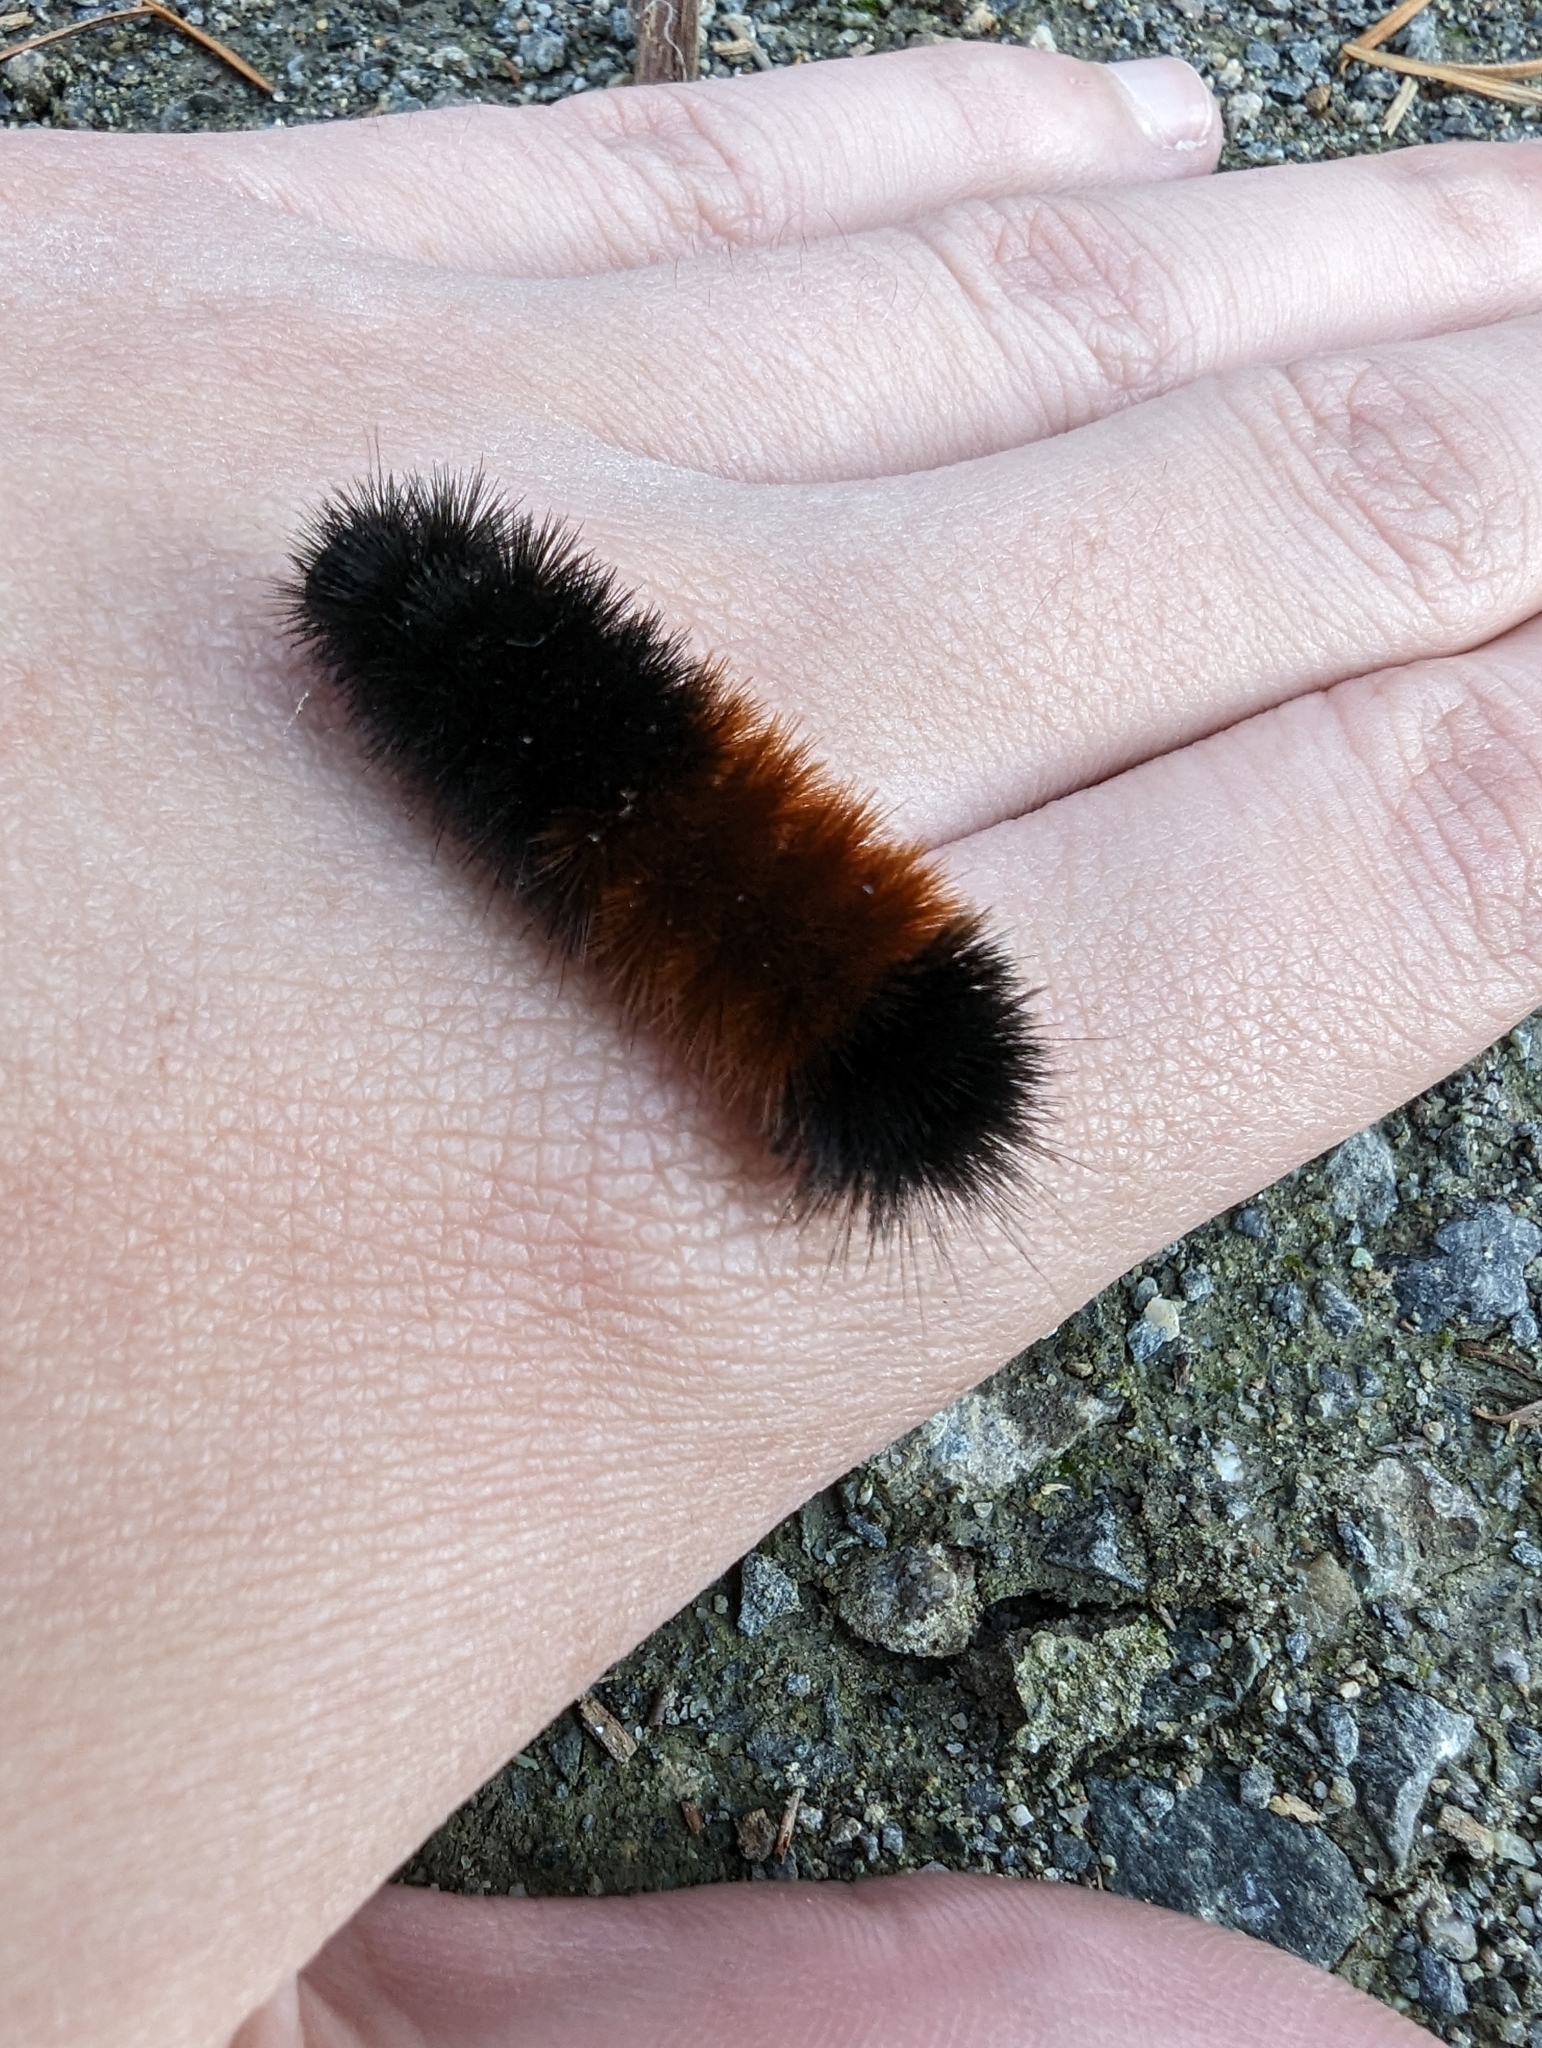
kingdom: Animalia
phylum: Arthropoda
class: Insecta
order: Lepidoptera
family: Erebidae
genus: Pyrrharctia
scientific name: Pyrrharctia isabella
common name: Isabella tiger moth
